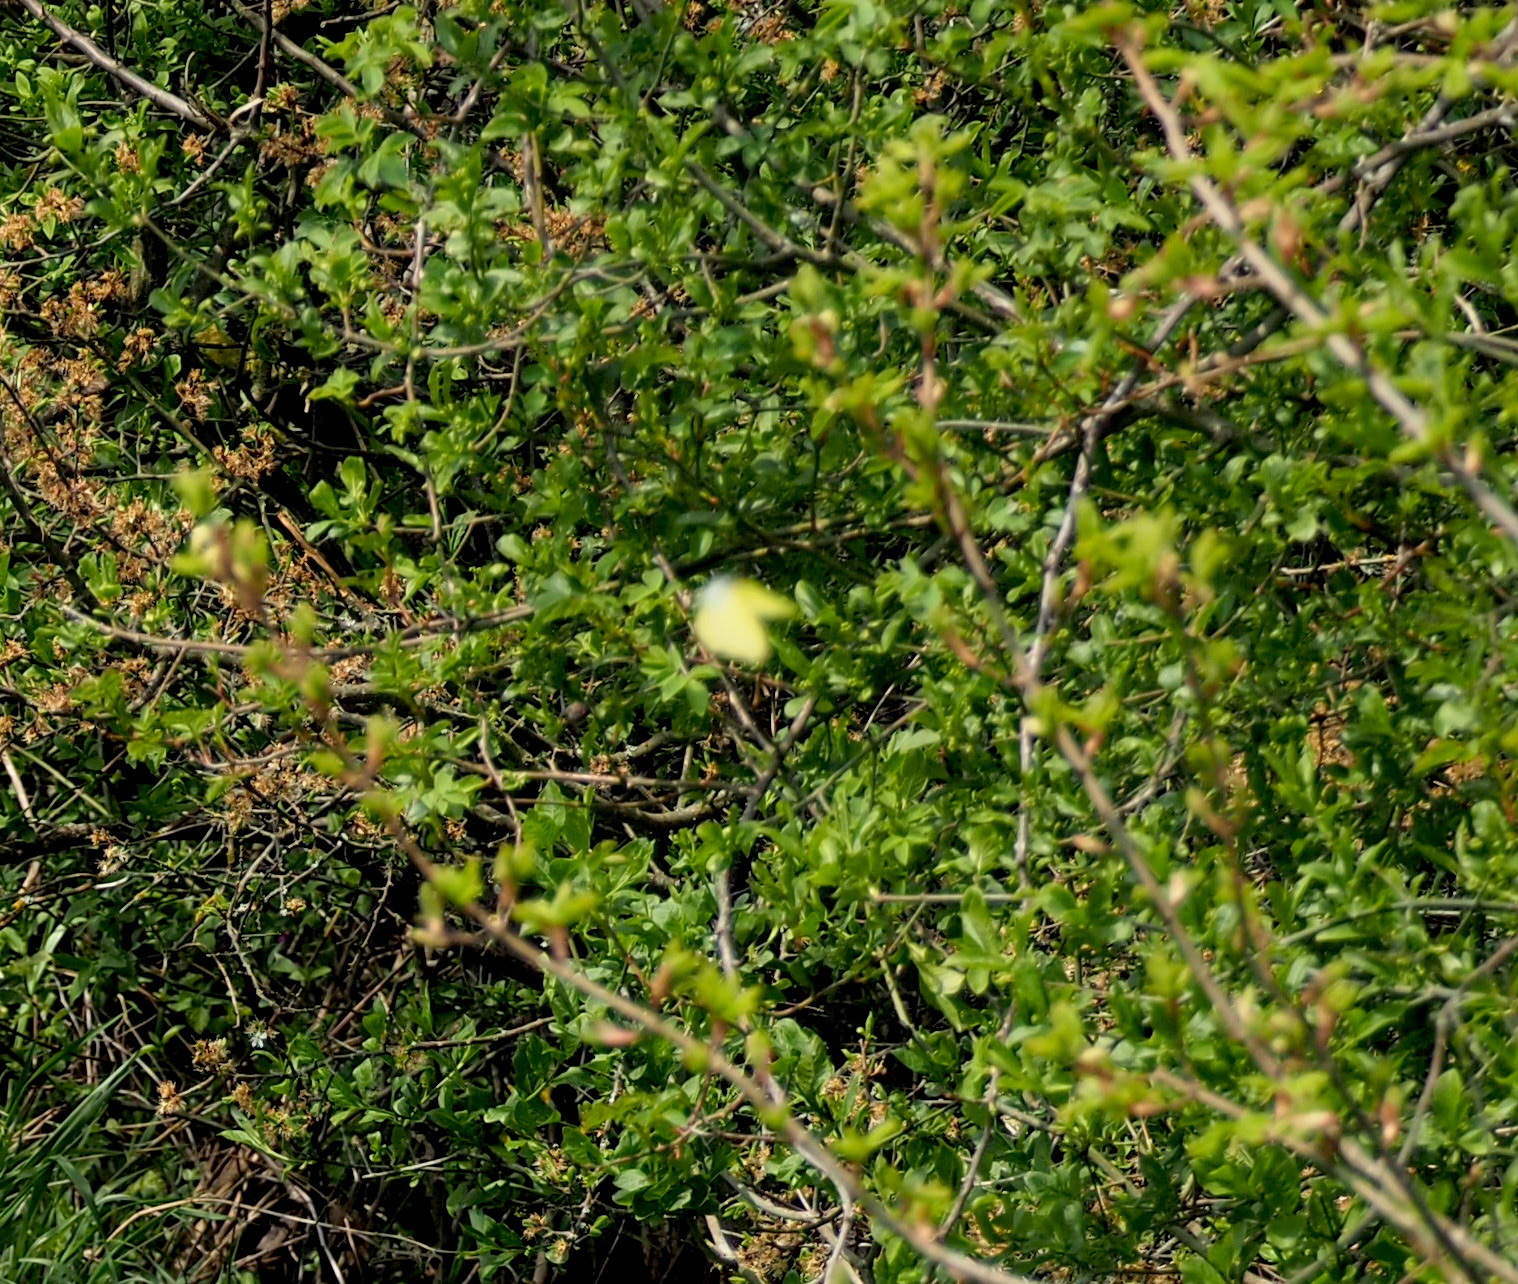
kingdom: Animalia
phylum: Arthropoda
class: Insecta
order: Lepidoptera
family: Pieridae
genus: Gonepteryx
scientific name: Gonepteryx rhamni
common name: Brimstone
